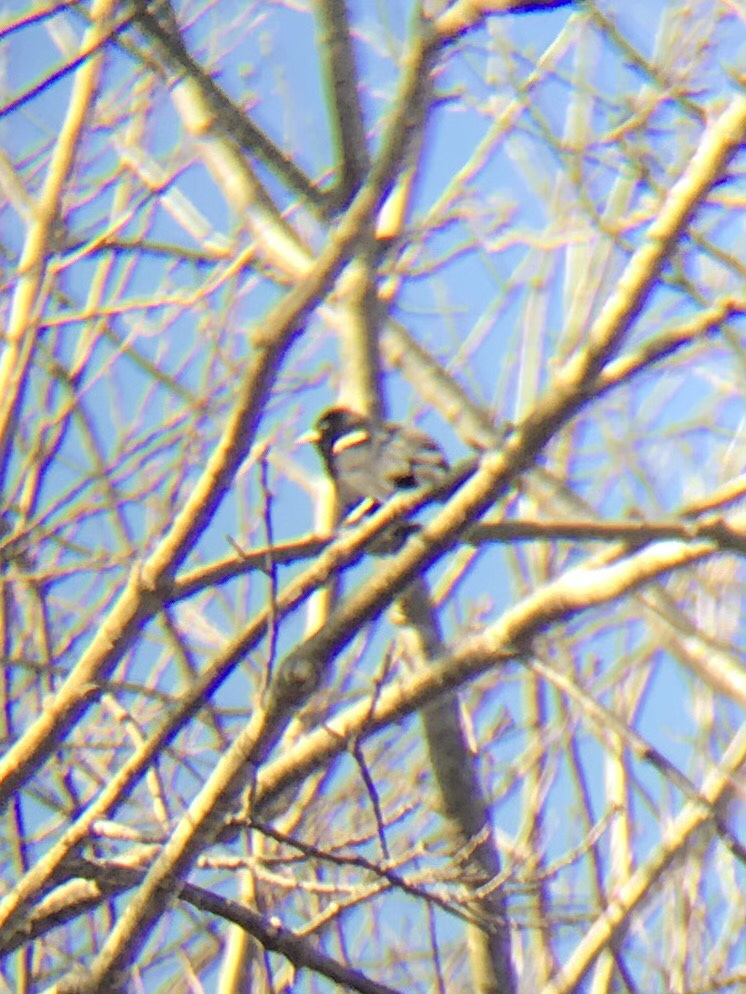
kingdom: Animalia
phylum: Chordata
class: Aves
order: Passeriformes
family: Icteridae
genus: Agelaius
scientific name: Agelaius phoeniceus
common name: Red-winged blackbird
